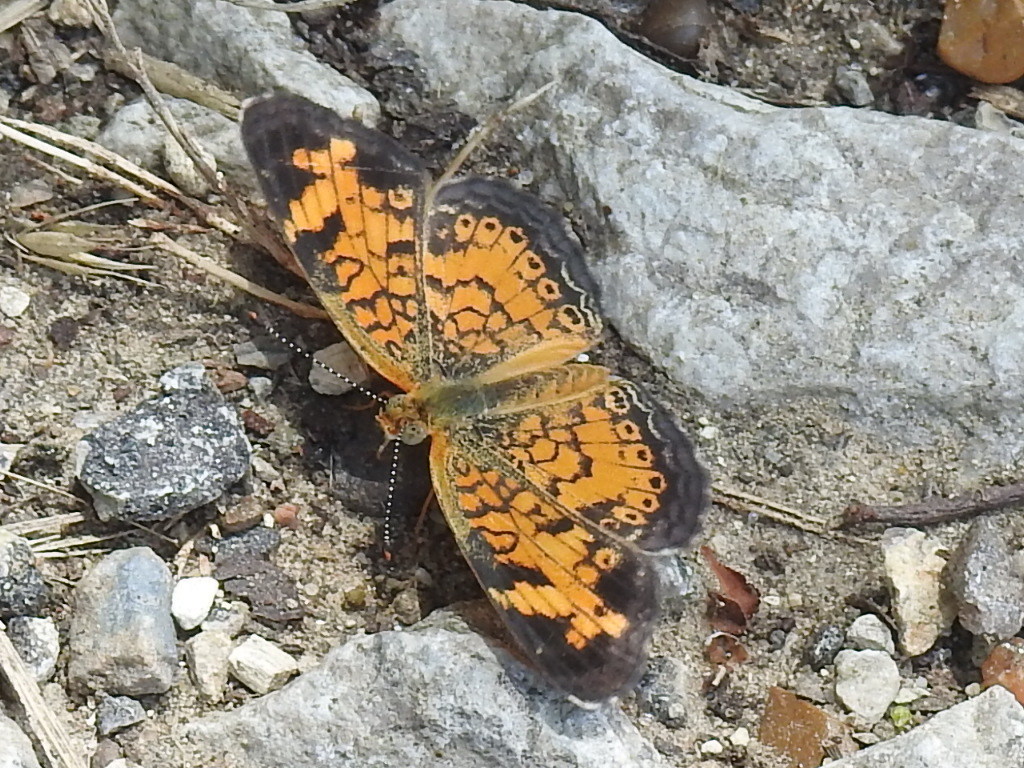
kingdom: Animalia
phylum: Arthropoda
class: Insecta
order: Lepidoptera
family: Nymphalidae
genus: Phyciodes
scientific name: Phyciodes tharos
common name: Pearl crescent
